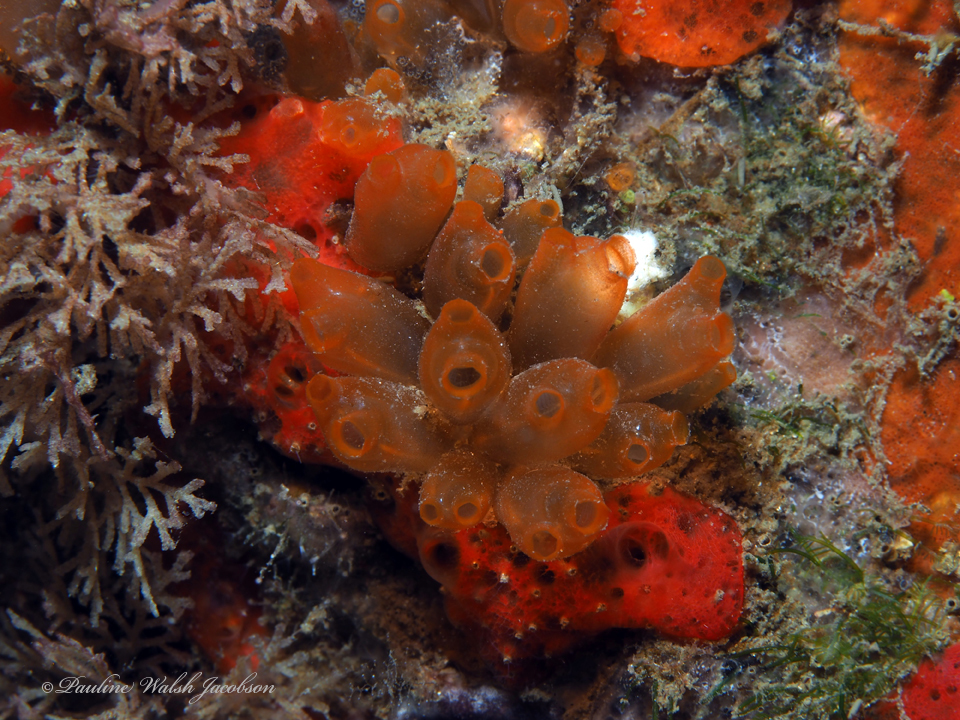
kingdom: Animalia
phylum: Chordata
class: Ascidiacea
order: Phlebobranchia
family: Perophoridae
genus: Ecteinascidia
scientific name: Ecteinascidia turbinata
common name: Mangrove tunicate
